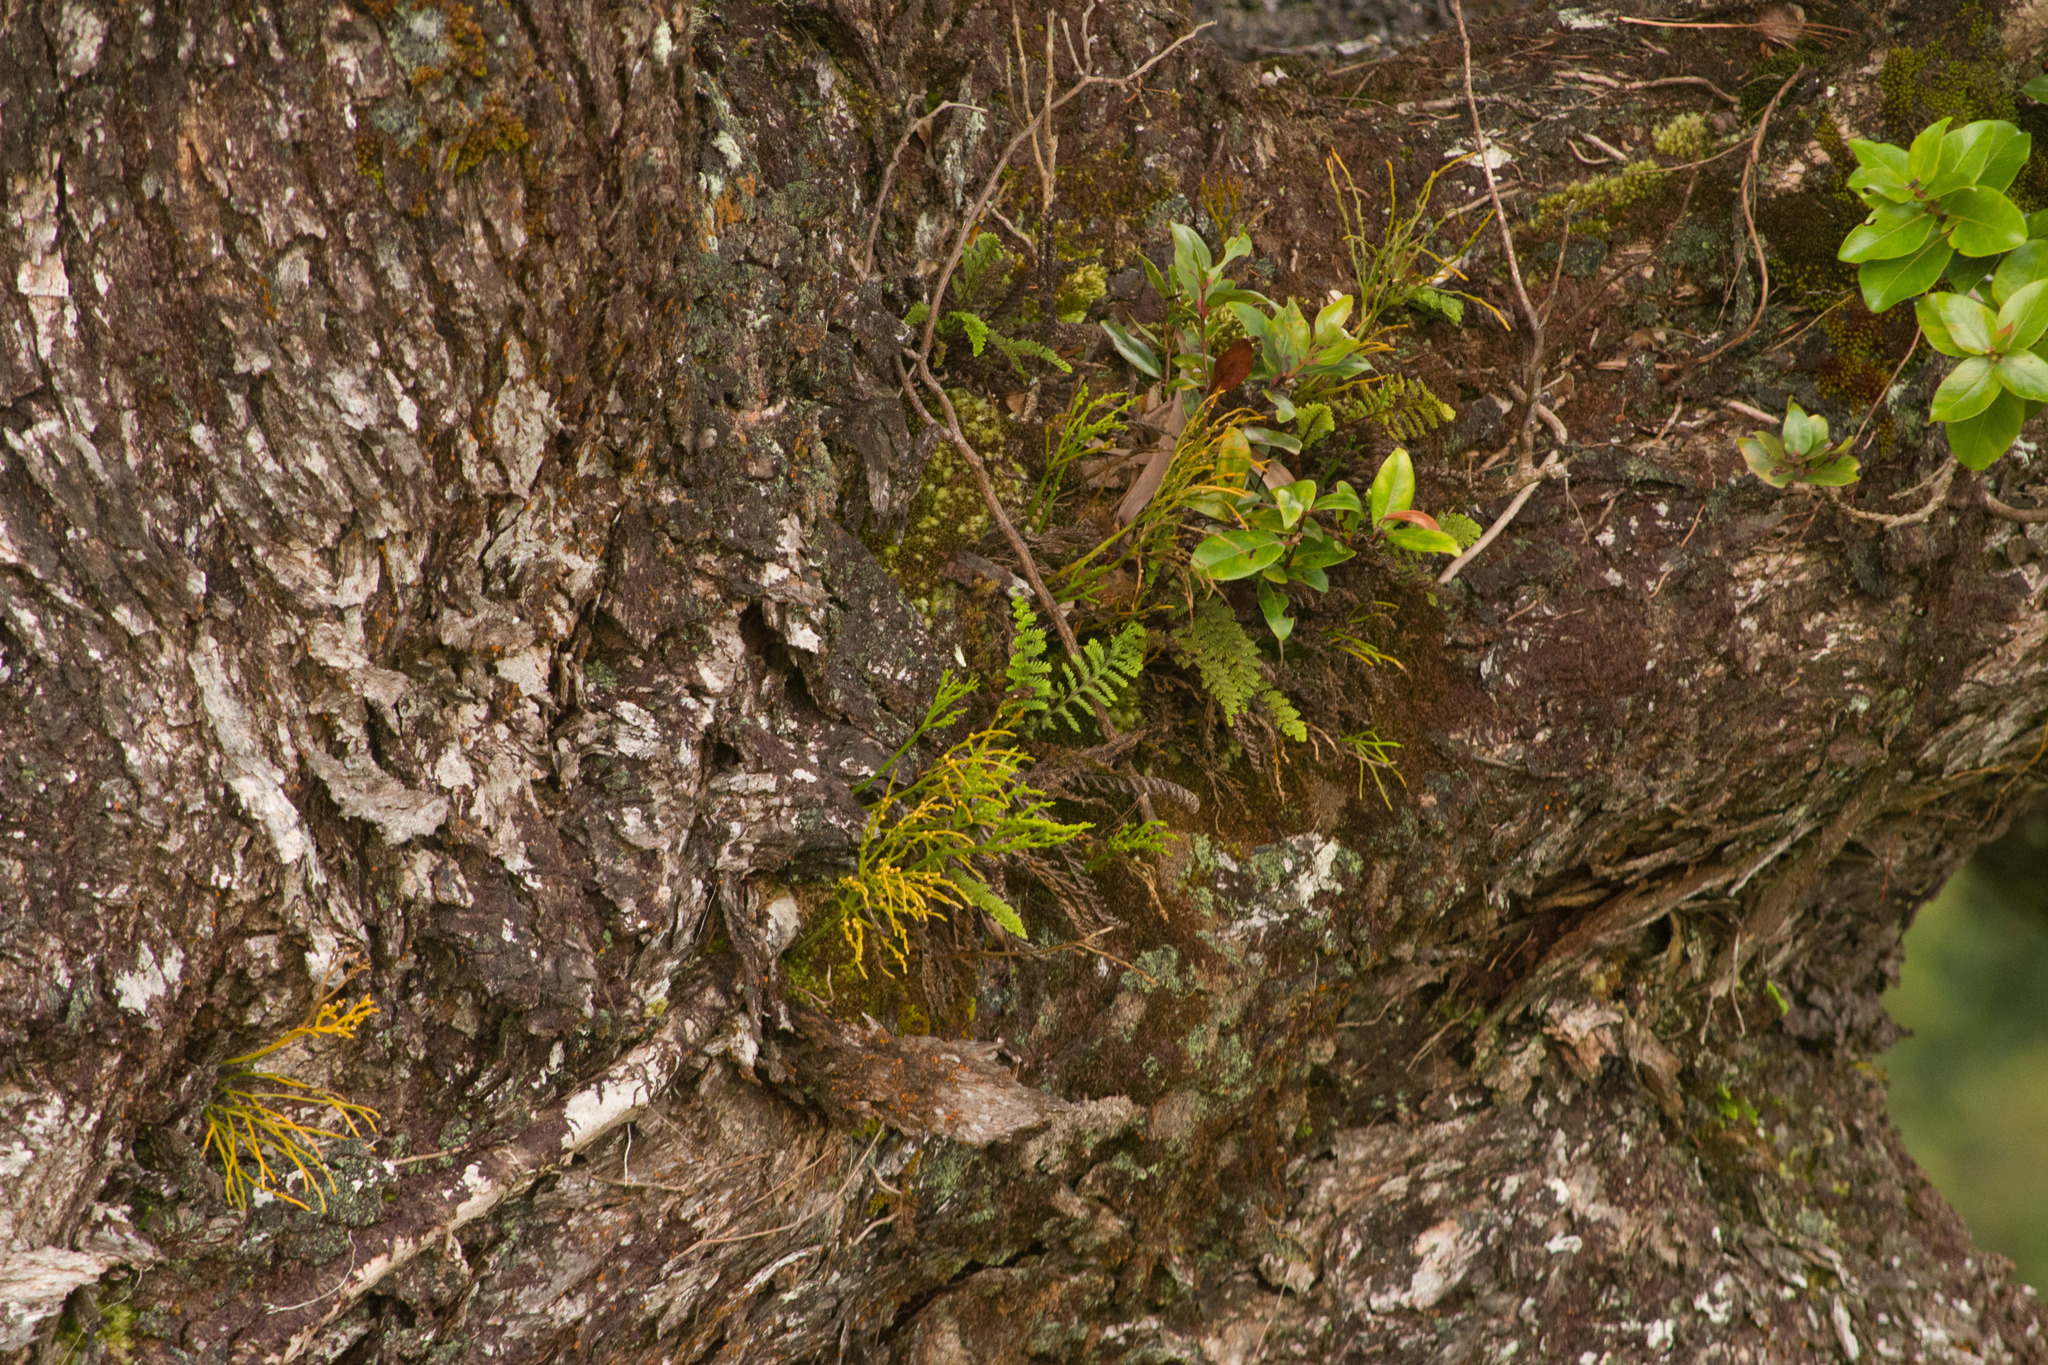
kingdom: Plantae
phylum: Tracheophyta
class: Polypodiopsida
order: Psilotales
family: Psilotaceae
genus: Psilotum
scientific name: Psilotum nudum
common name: Skeleton fork fern
